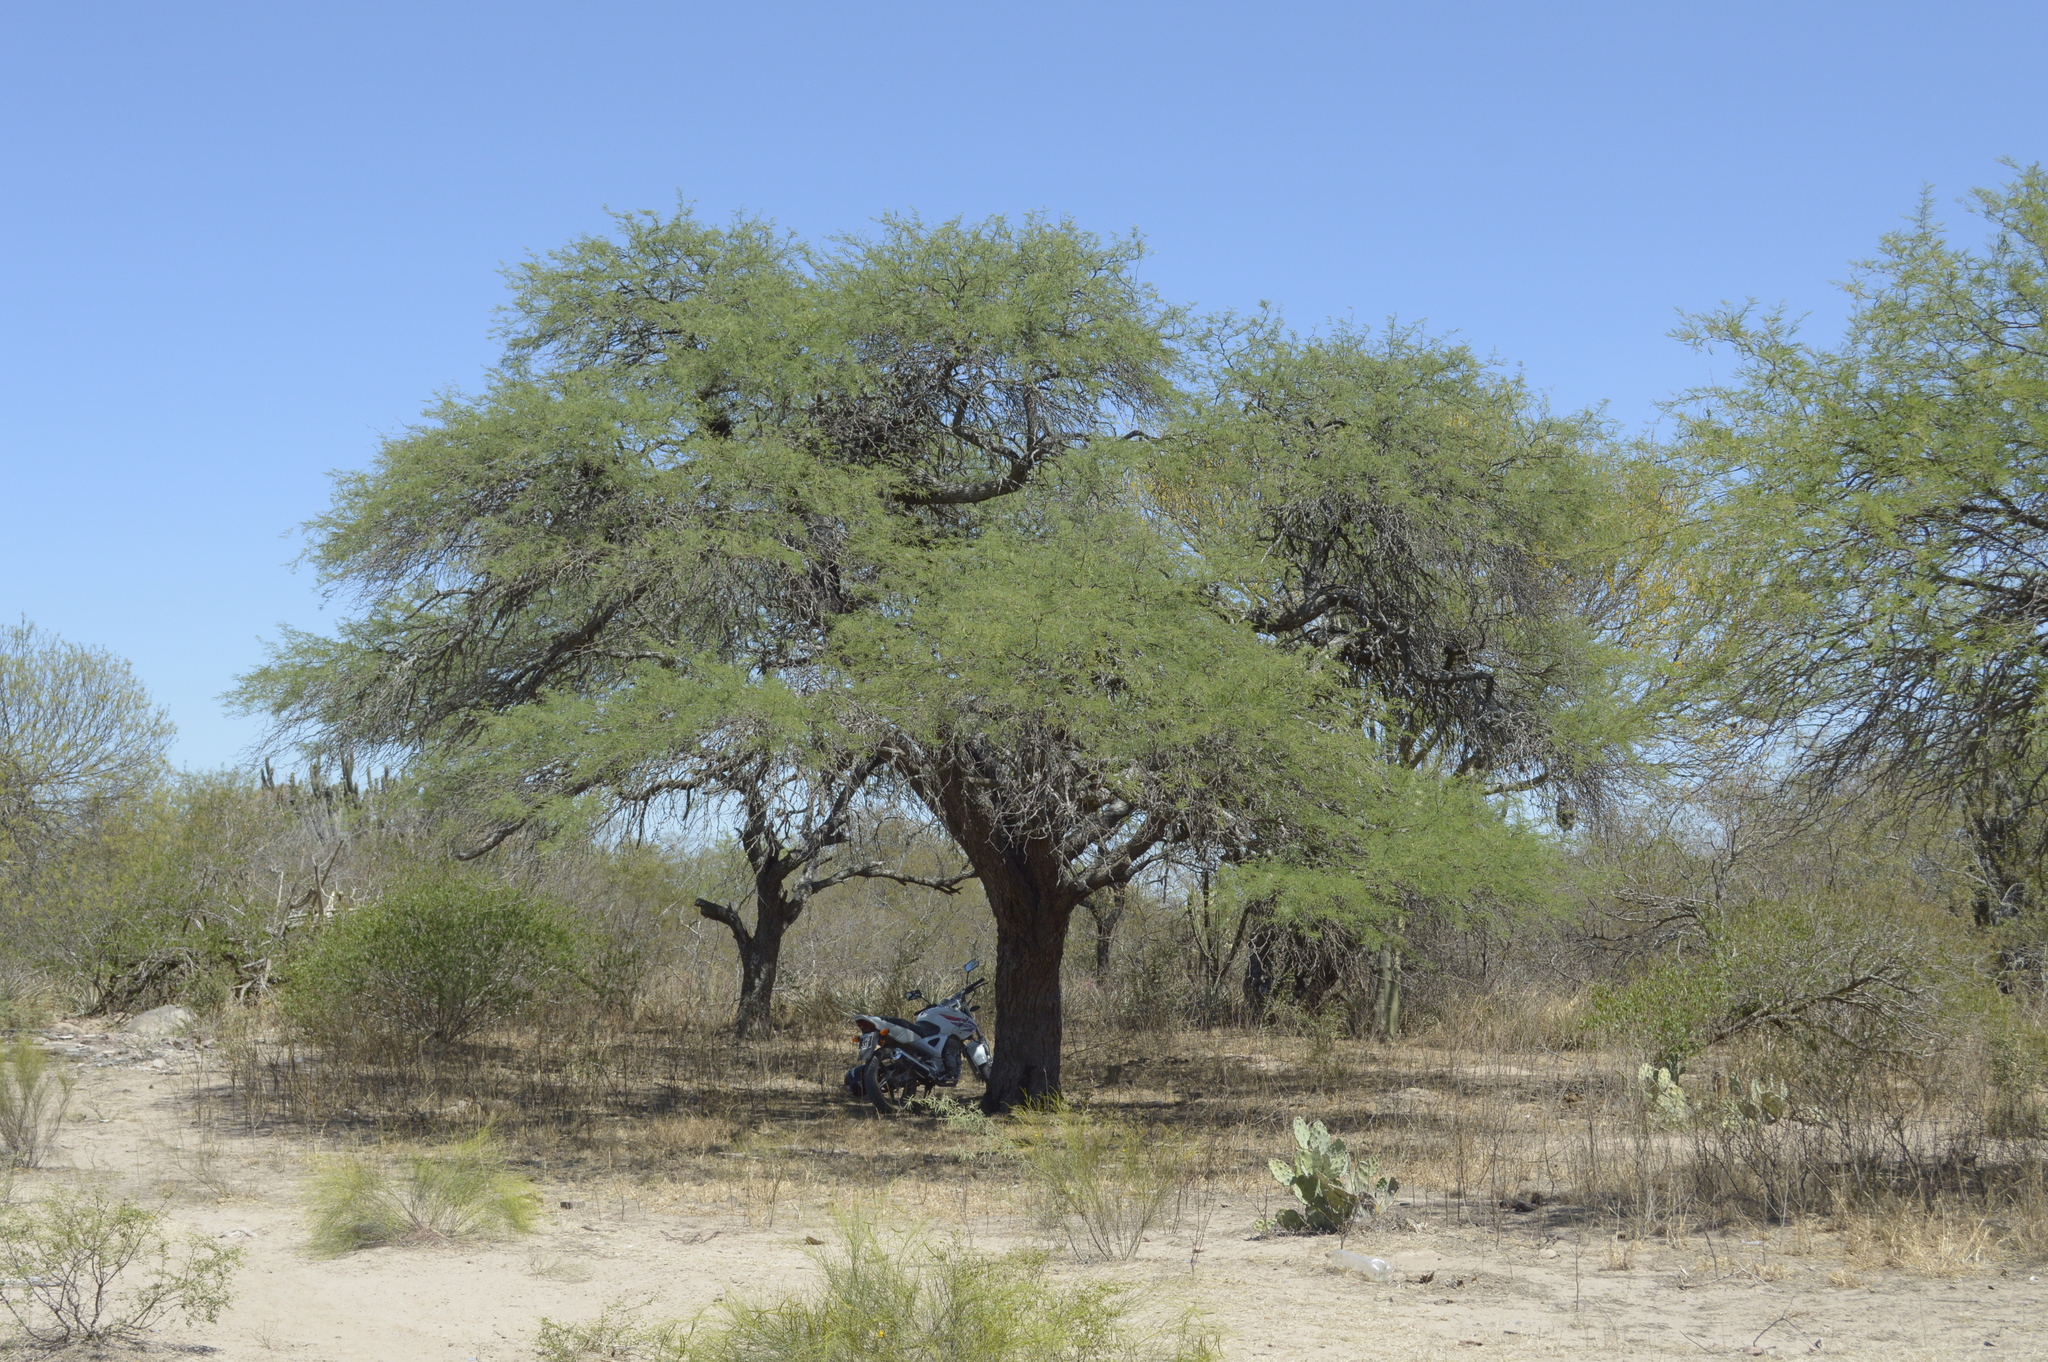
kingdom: Plantae
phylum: Tracheophyta
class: Magnoliopsida
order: Fabales
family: Fabaceae
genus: Prosopis
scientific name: Prosopis nigra
